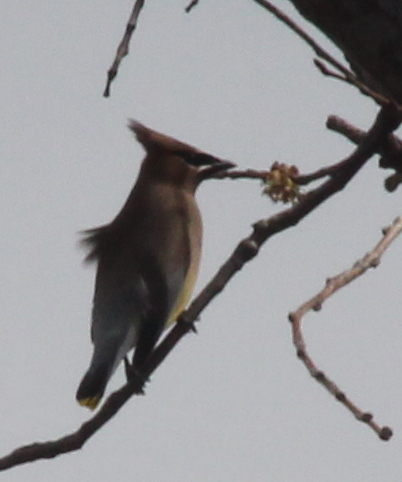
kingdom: Animalia
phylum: Chordata
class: Aves
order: Passeriformes
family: Bombycillidae
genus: Bombycilla
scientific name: Bombycilla cedrorum
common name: Cedar waxwing
